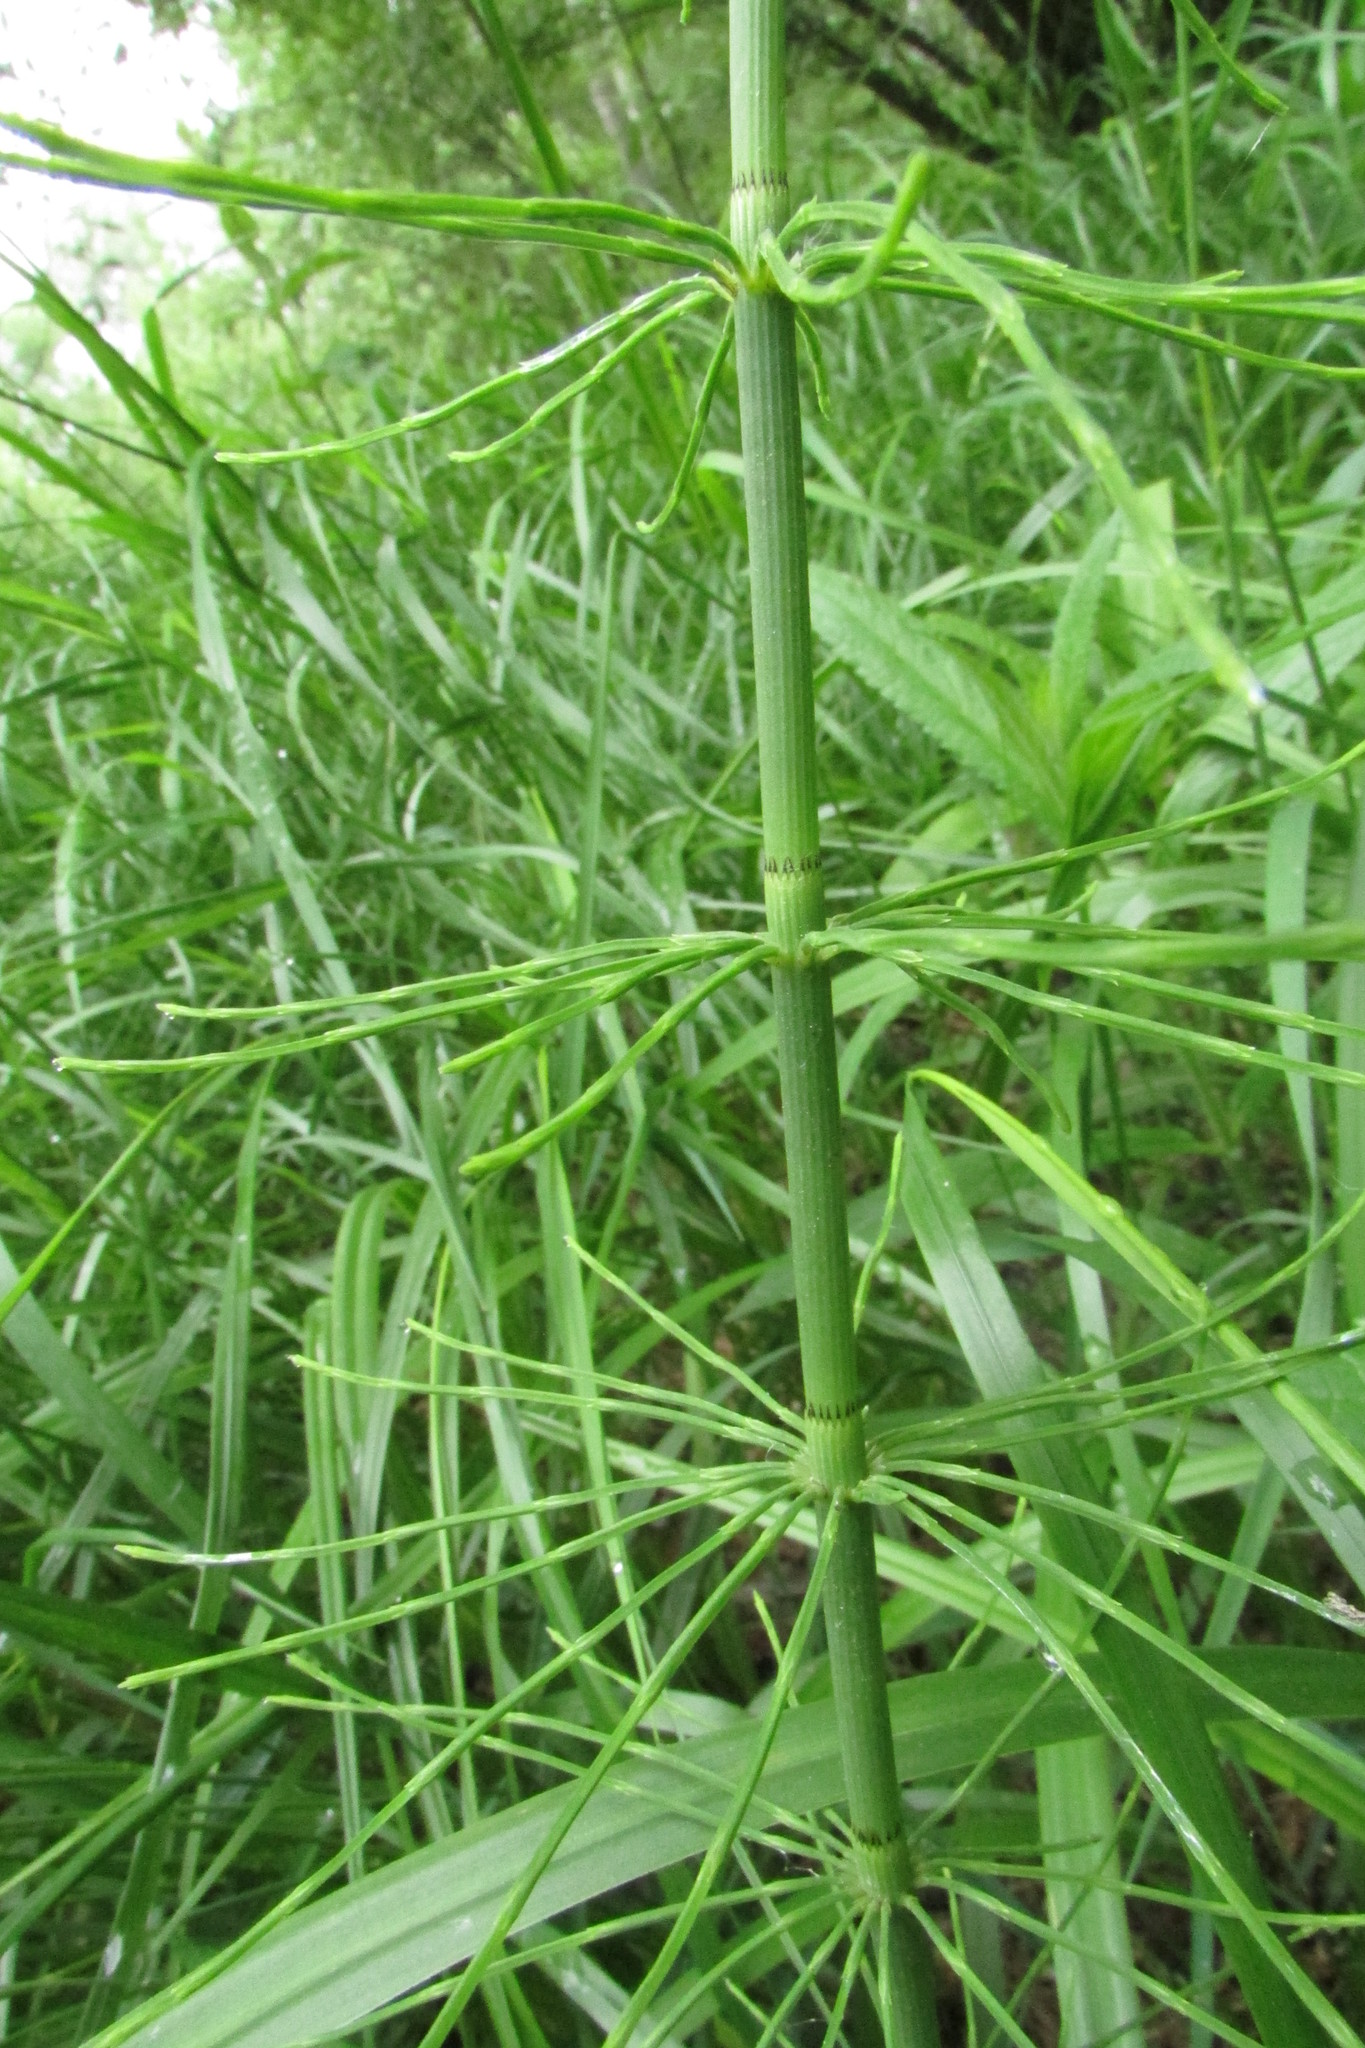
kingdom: Plantae
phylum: Tracheophyta
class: Polypodiopsida
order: Equisetales
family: Equisetaceae
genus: Equisetum
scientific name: Equisetum fluviatile
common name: Water horsetail
